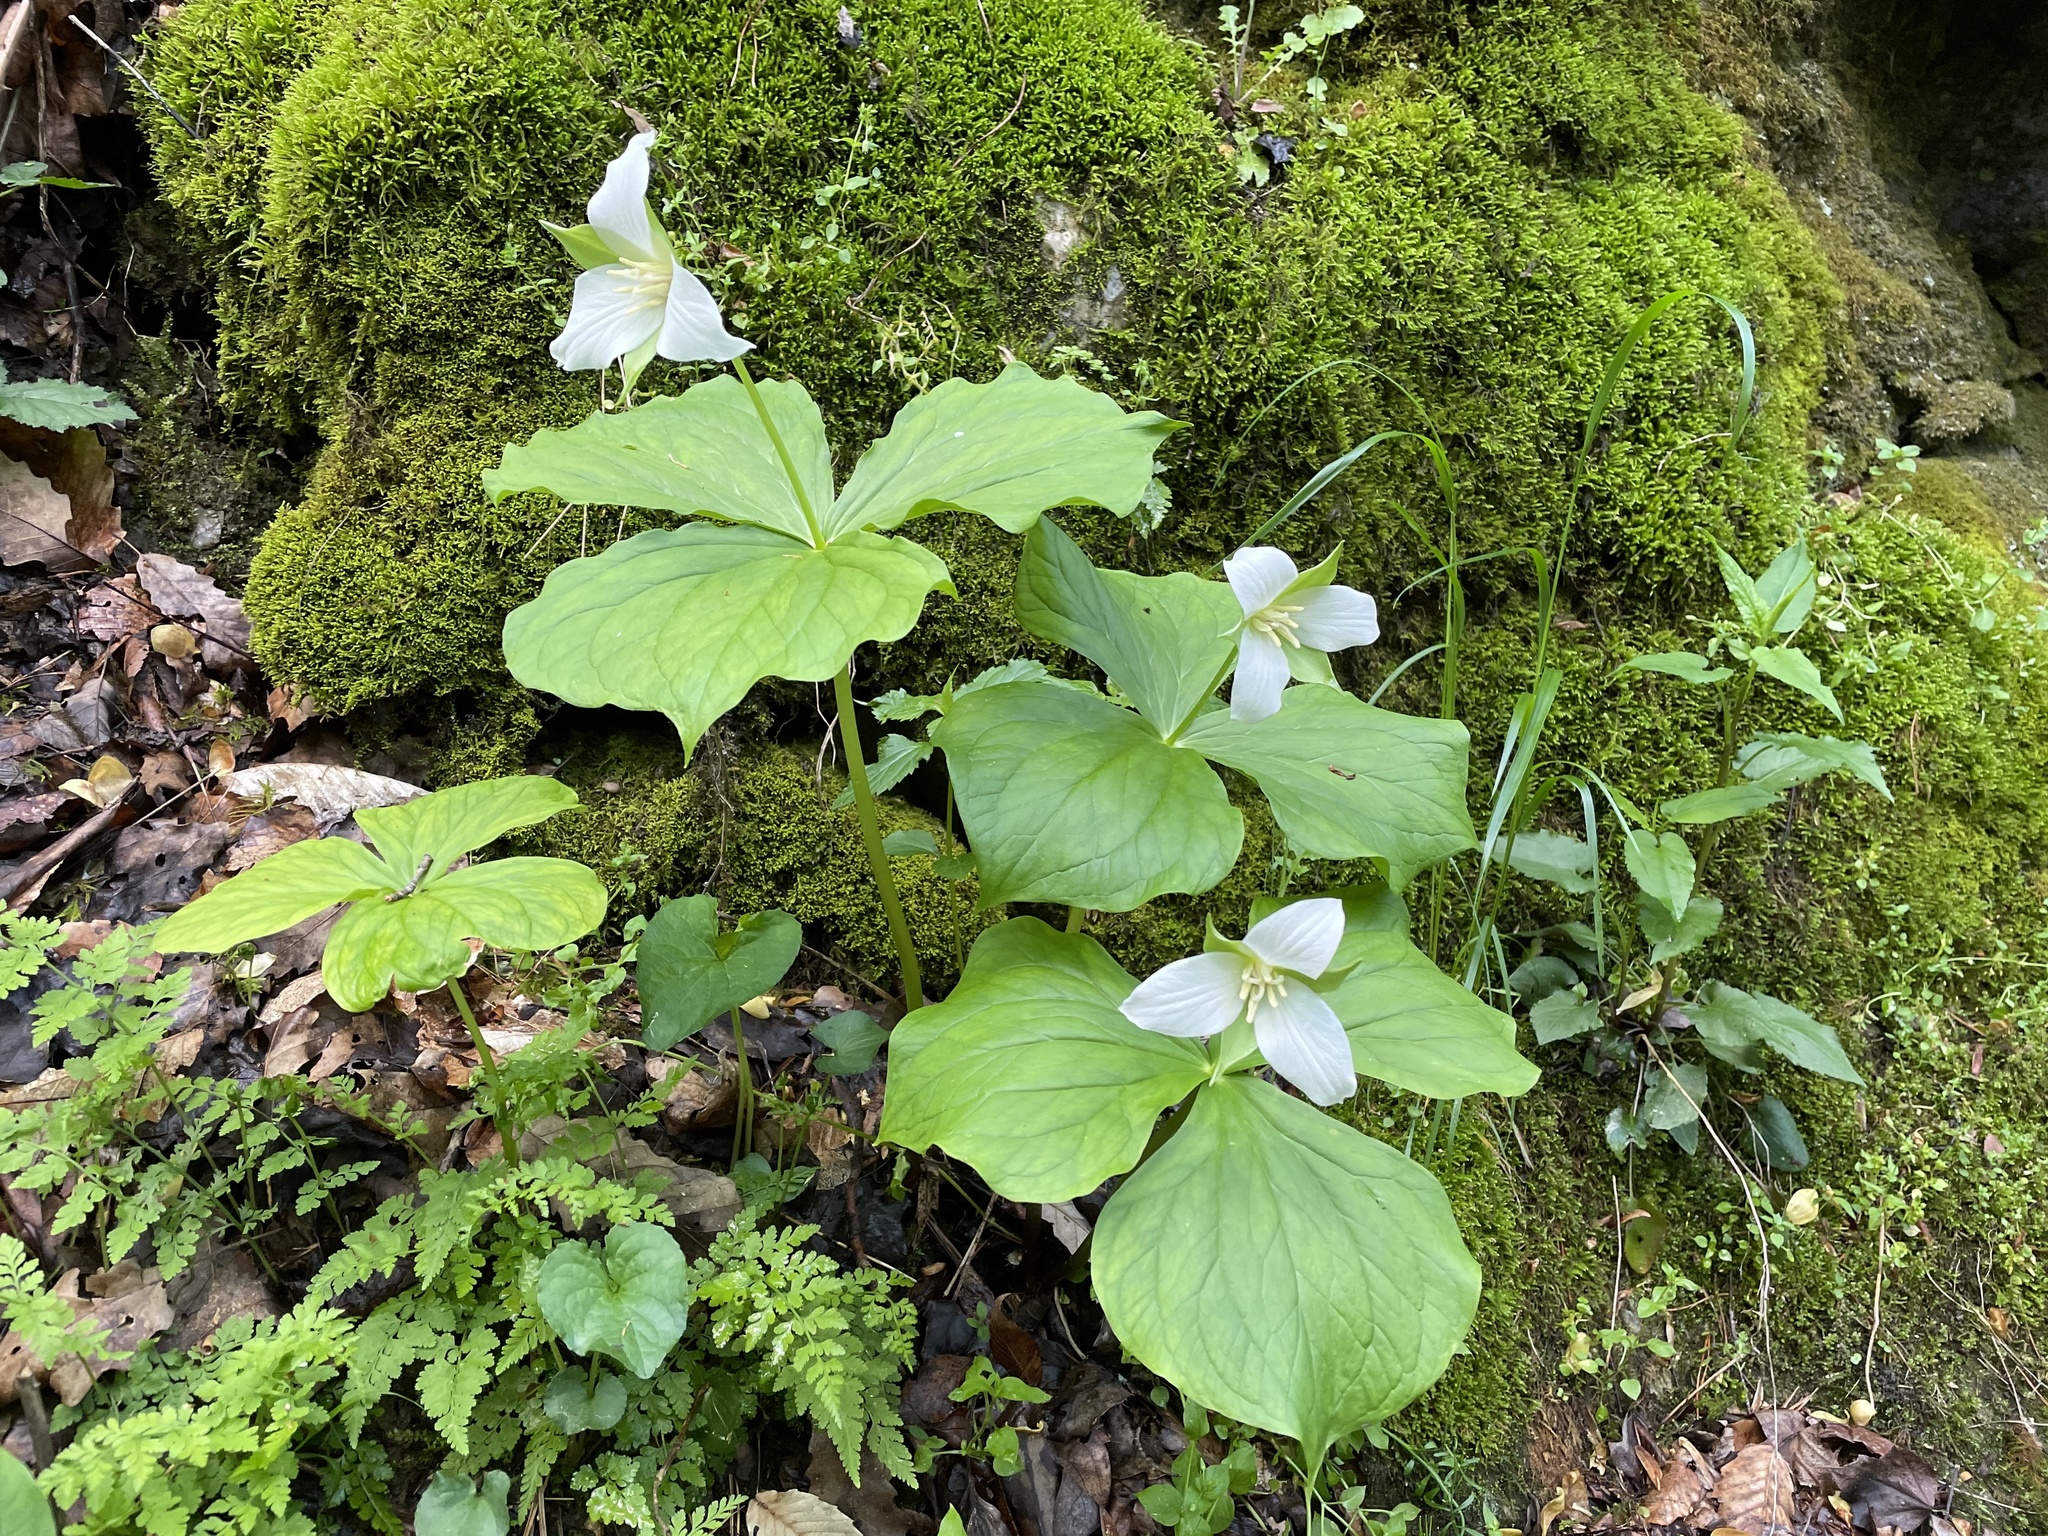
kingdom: Plantae
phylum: Tracheophyta
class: Liliopsida
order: Liliales
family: Melanthiaceae
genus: Trillium
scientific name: Trillium flexipes
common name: Drooping trillium
